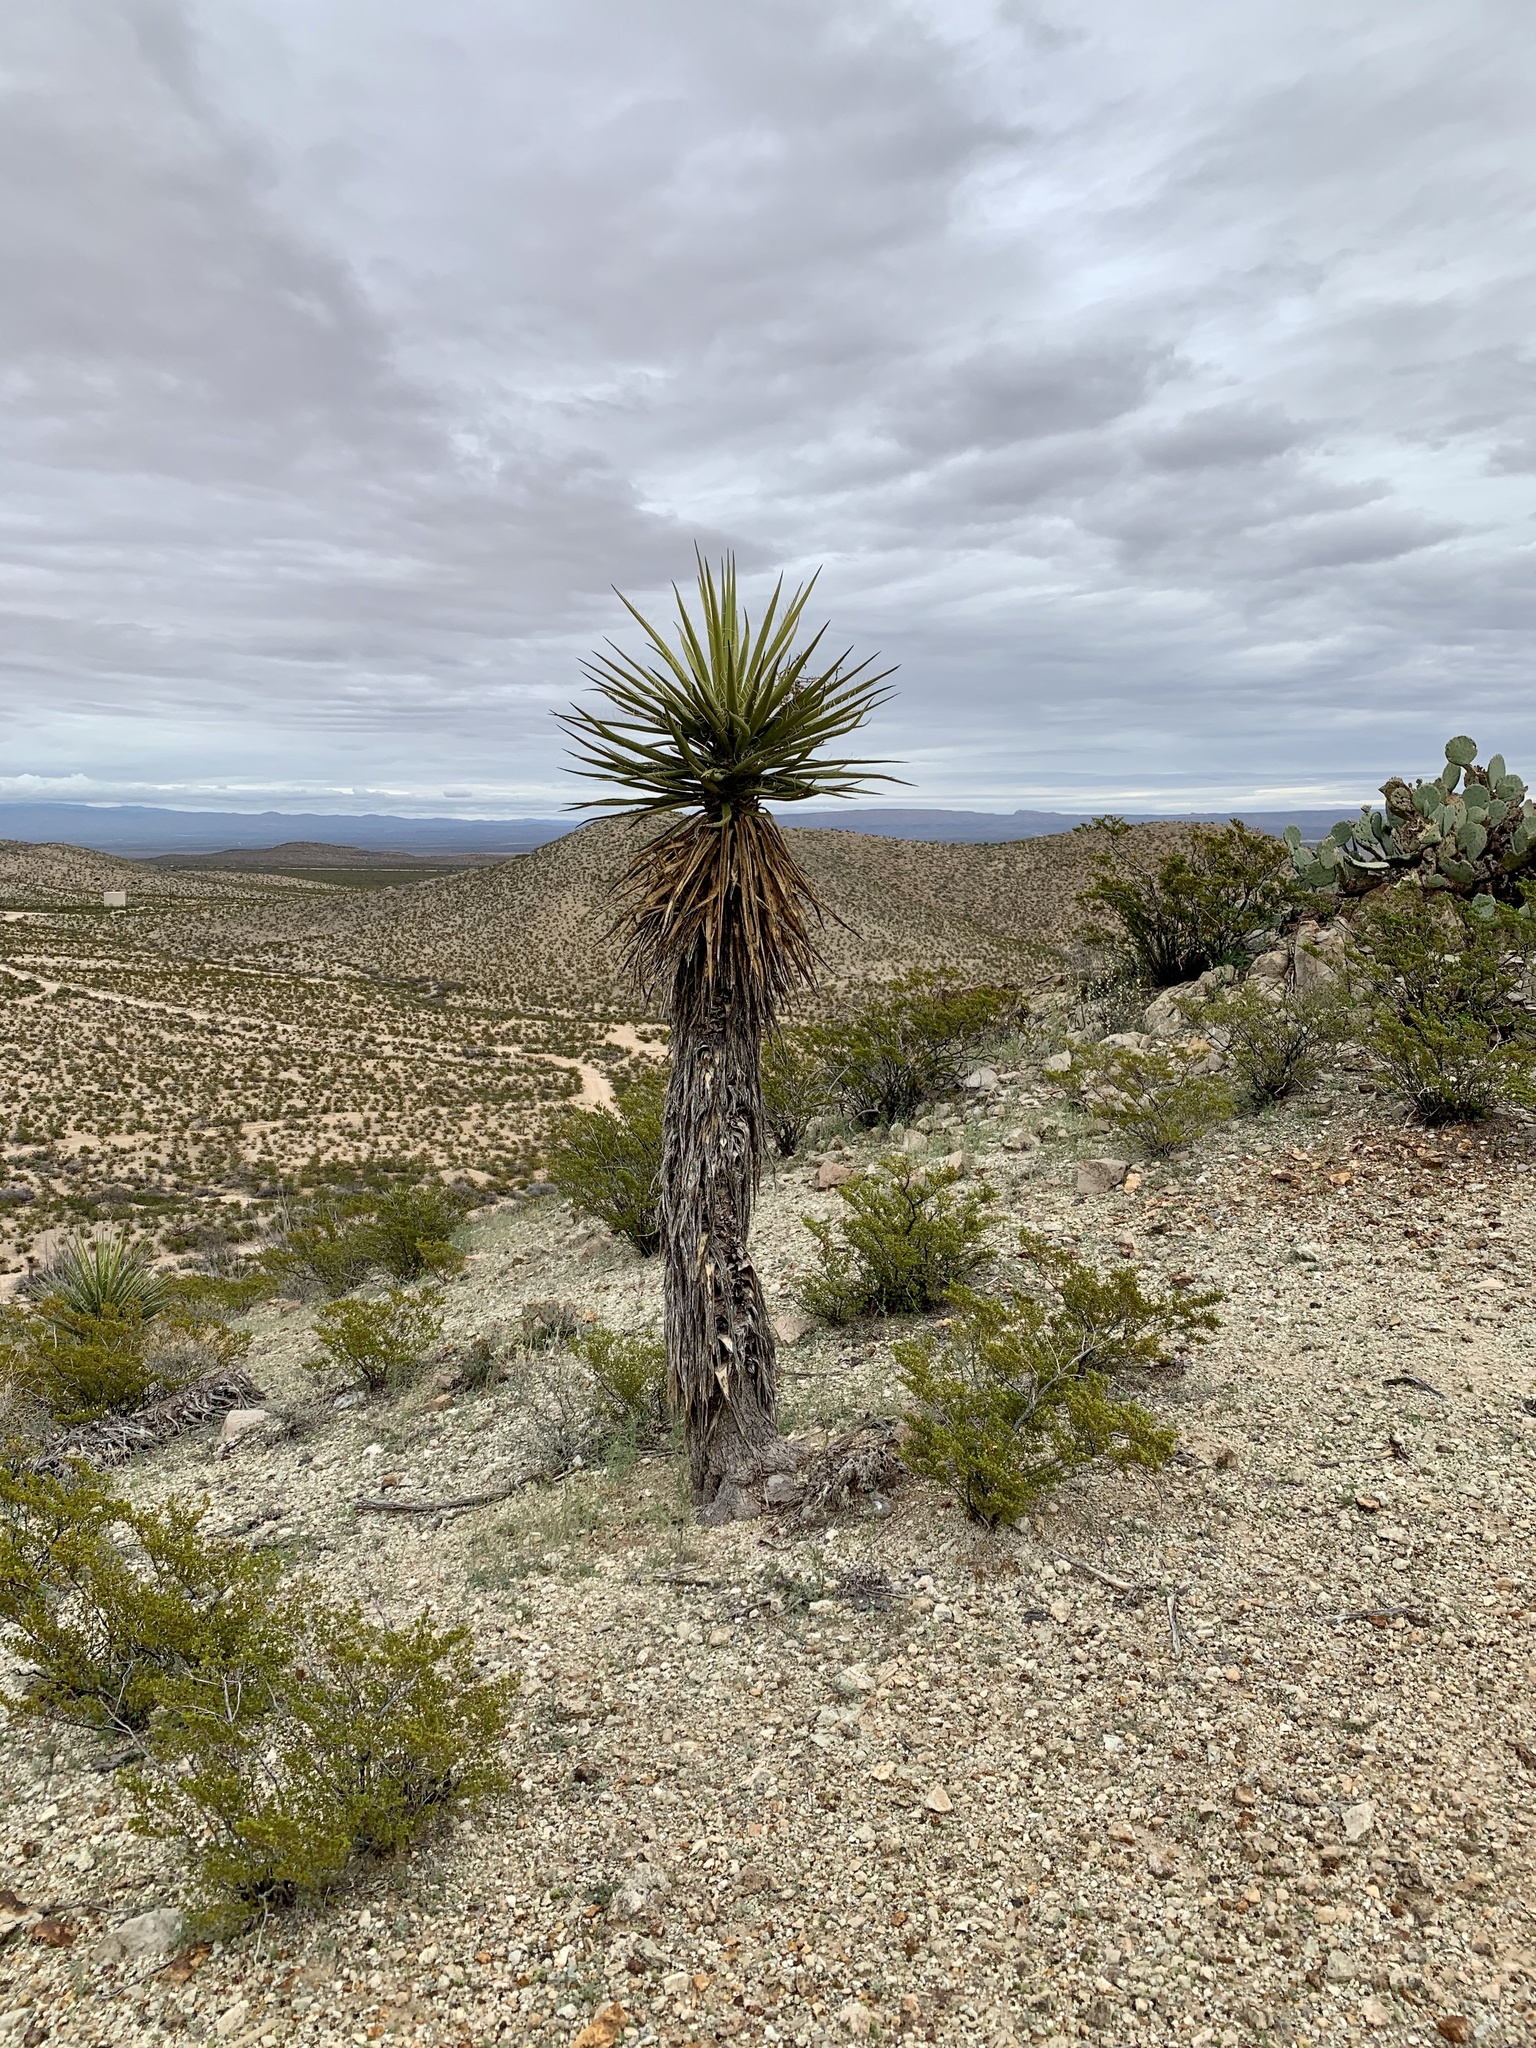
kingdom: Plantae
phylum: Tracheophyta
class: Liliopsida
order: Asparagales
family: Asparagaceae
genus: Yucca
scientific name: Yucca treculiana
